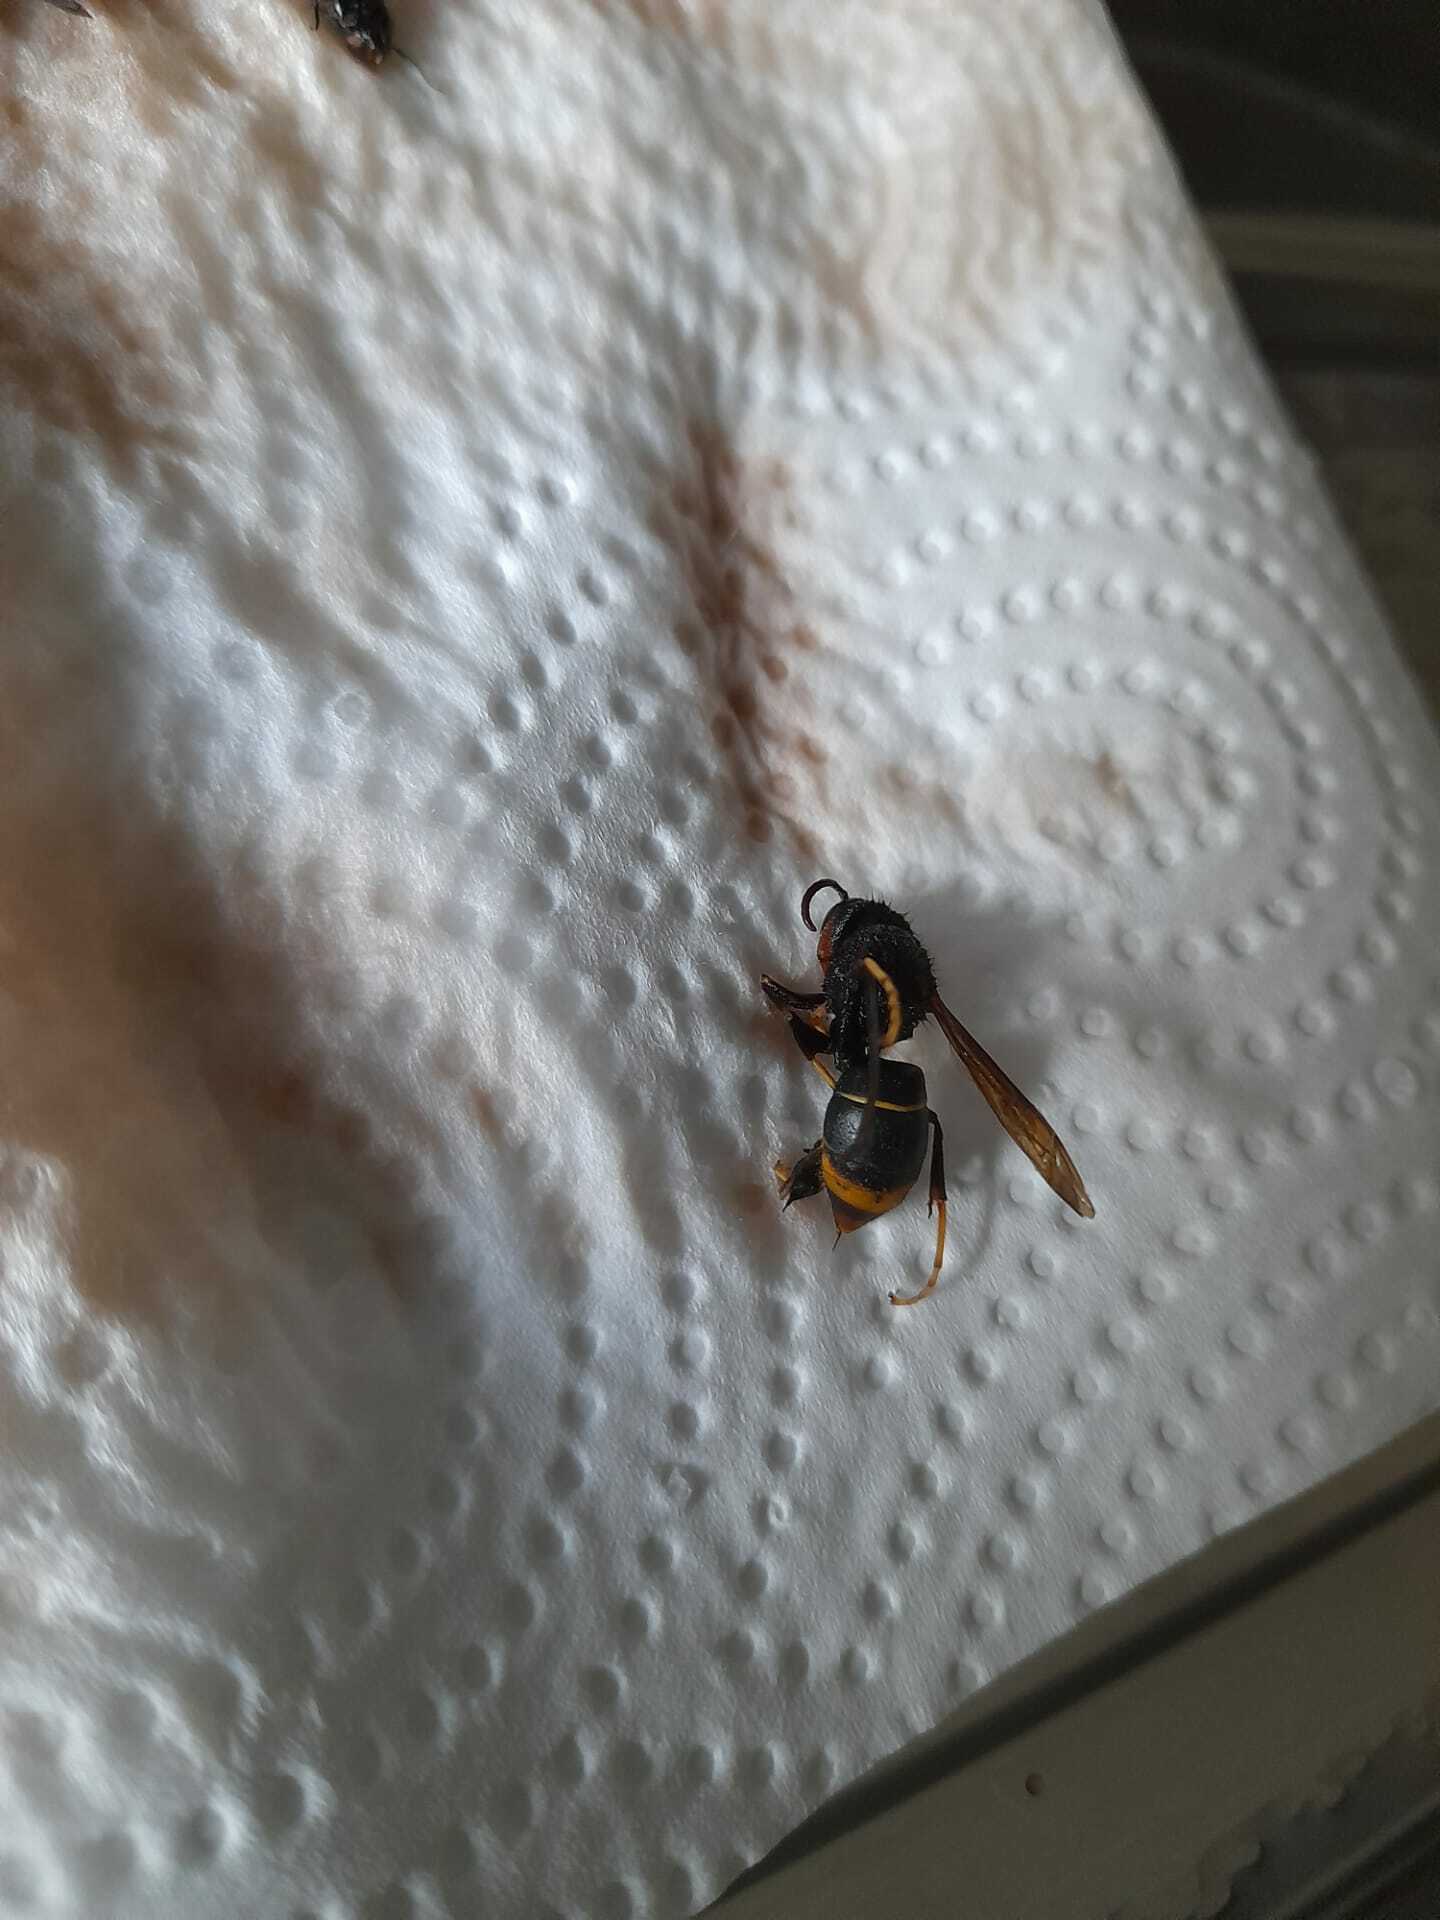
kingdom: Animalia
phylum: Arthropoda
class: Insecta
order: Hymenoptera
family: Vespidae
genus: Vespa
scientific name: Vespa velutina
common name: Asian hornet
